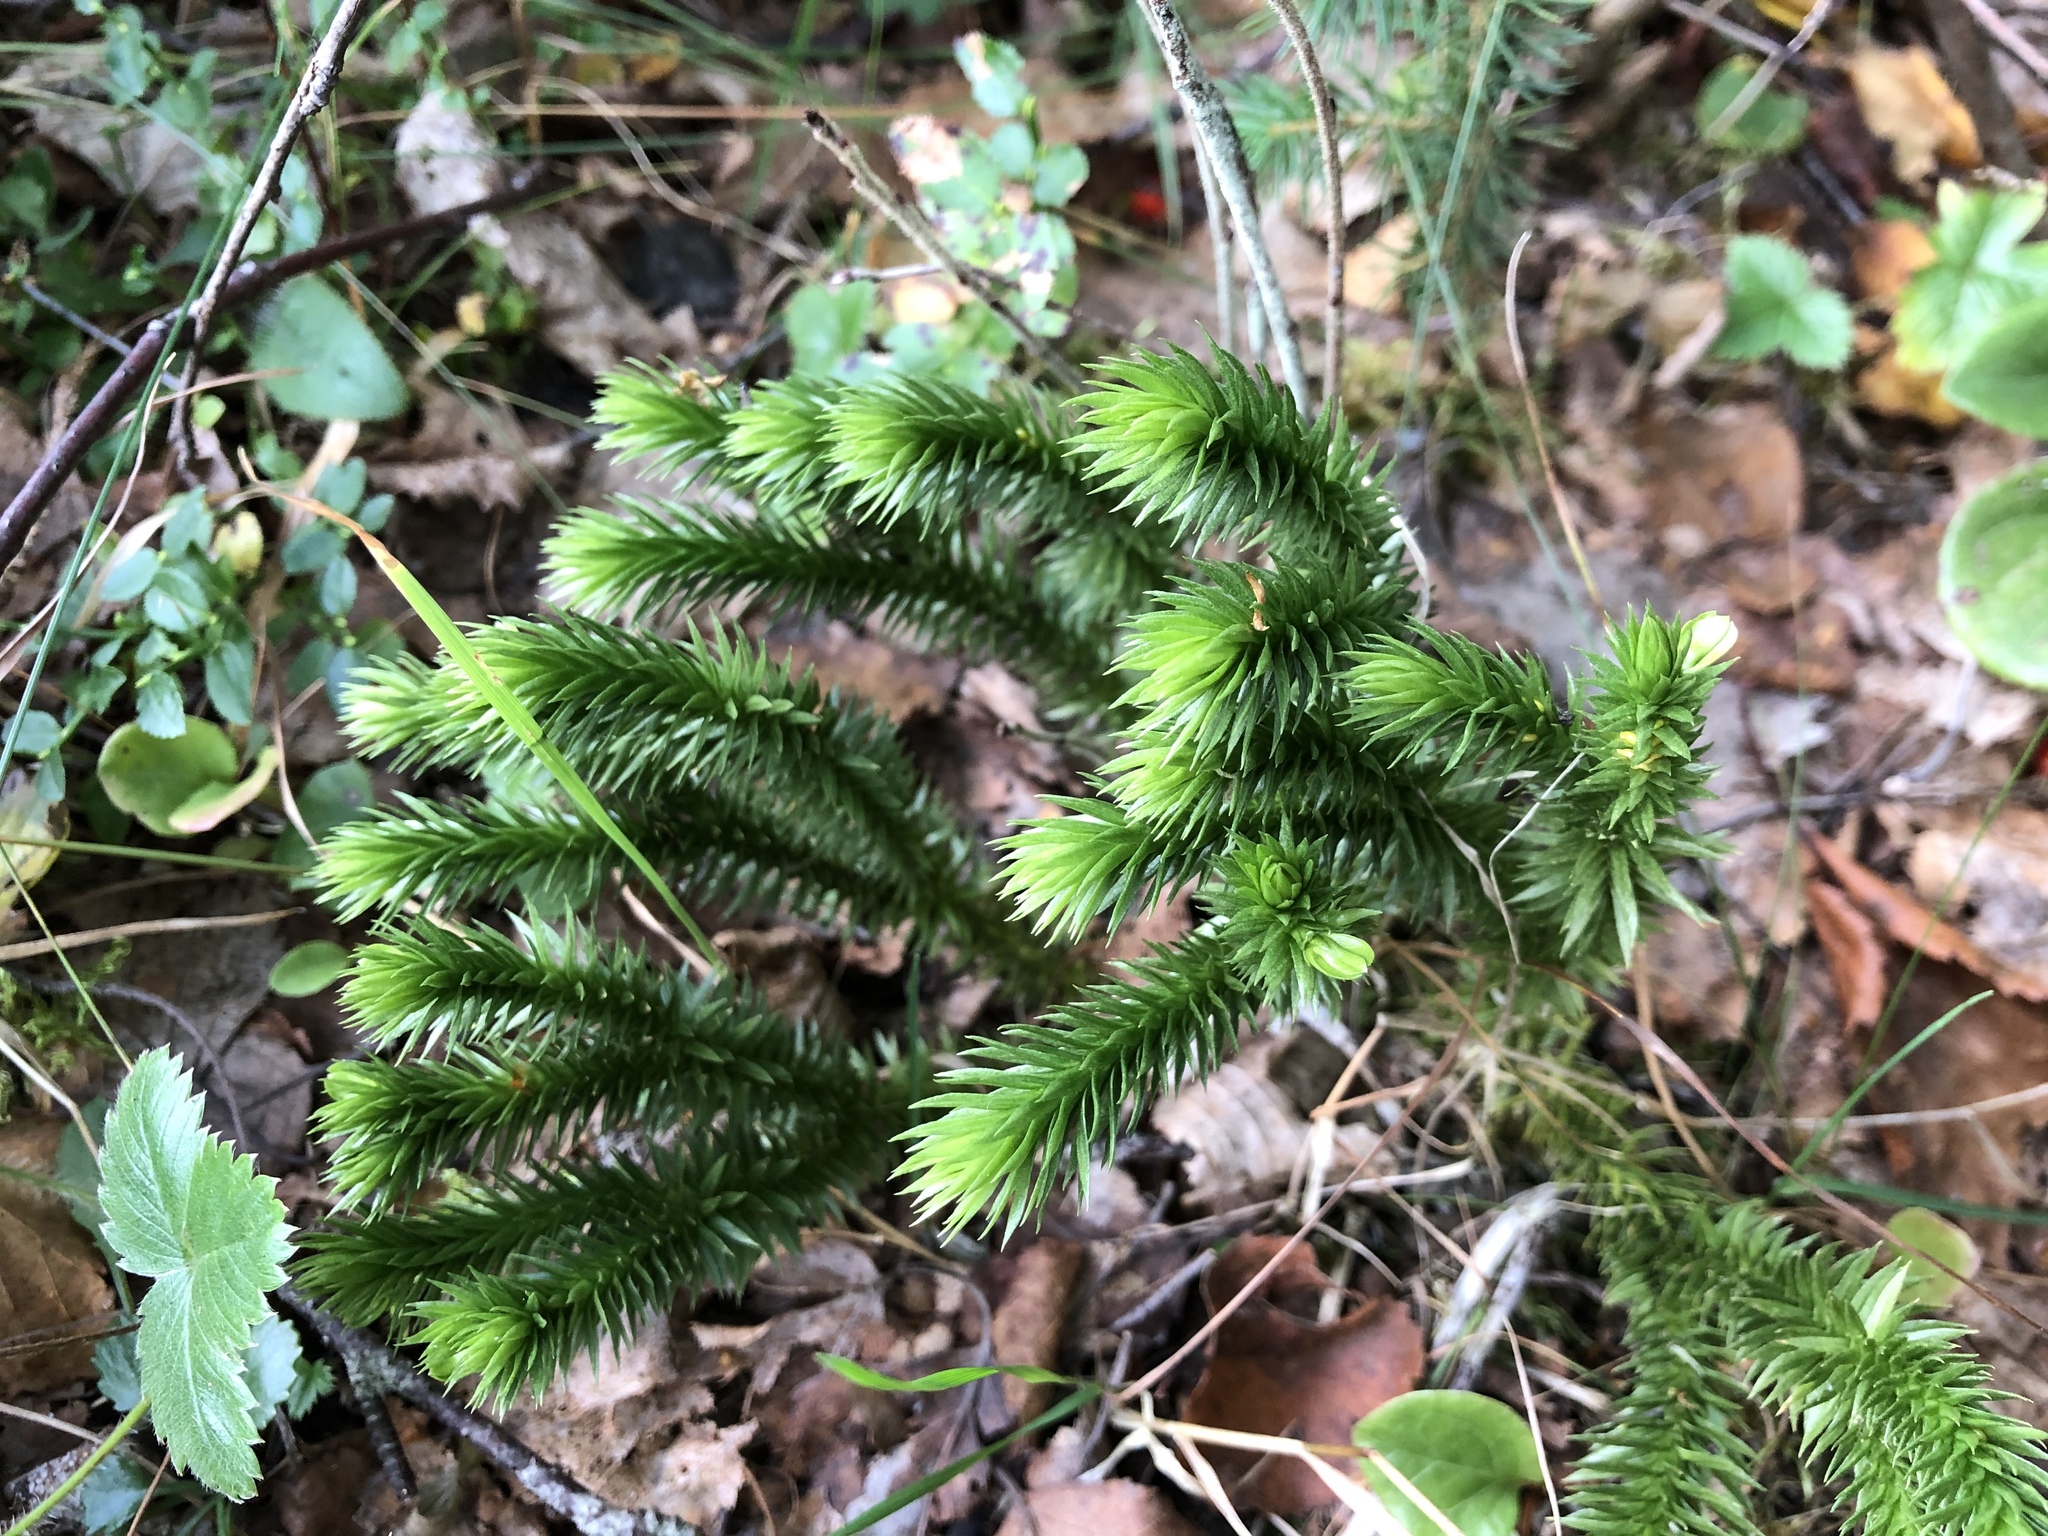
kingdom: Plantae
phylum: Tracheophyta
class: Lycopodiopsida
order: Lycopodiales
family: Lycopodiaceae
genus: Huperzia
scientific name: Huperzia selago
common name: Northern firmoss
